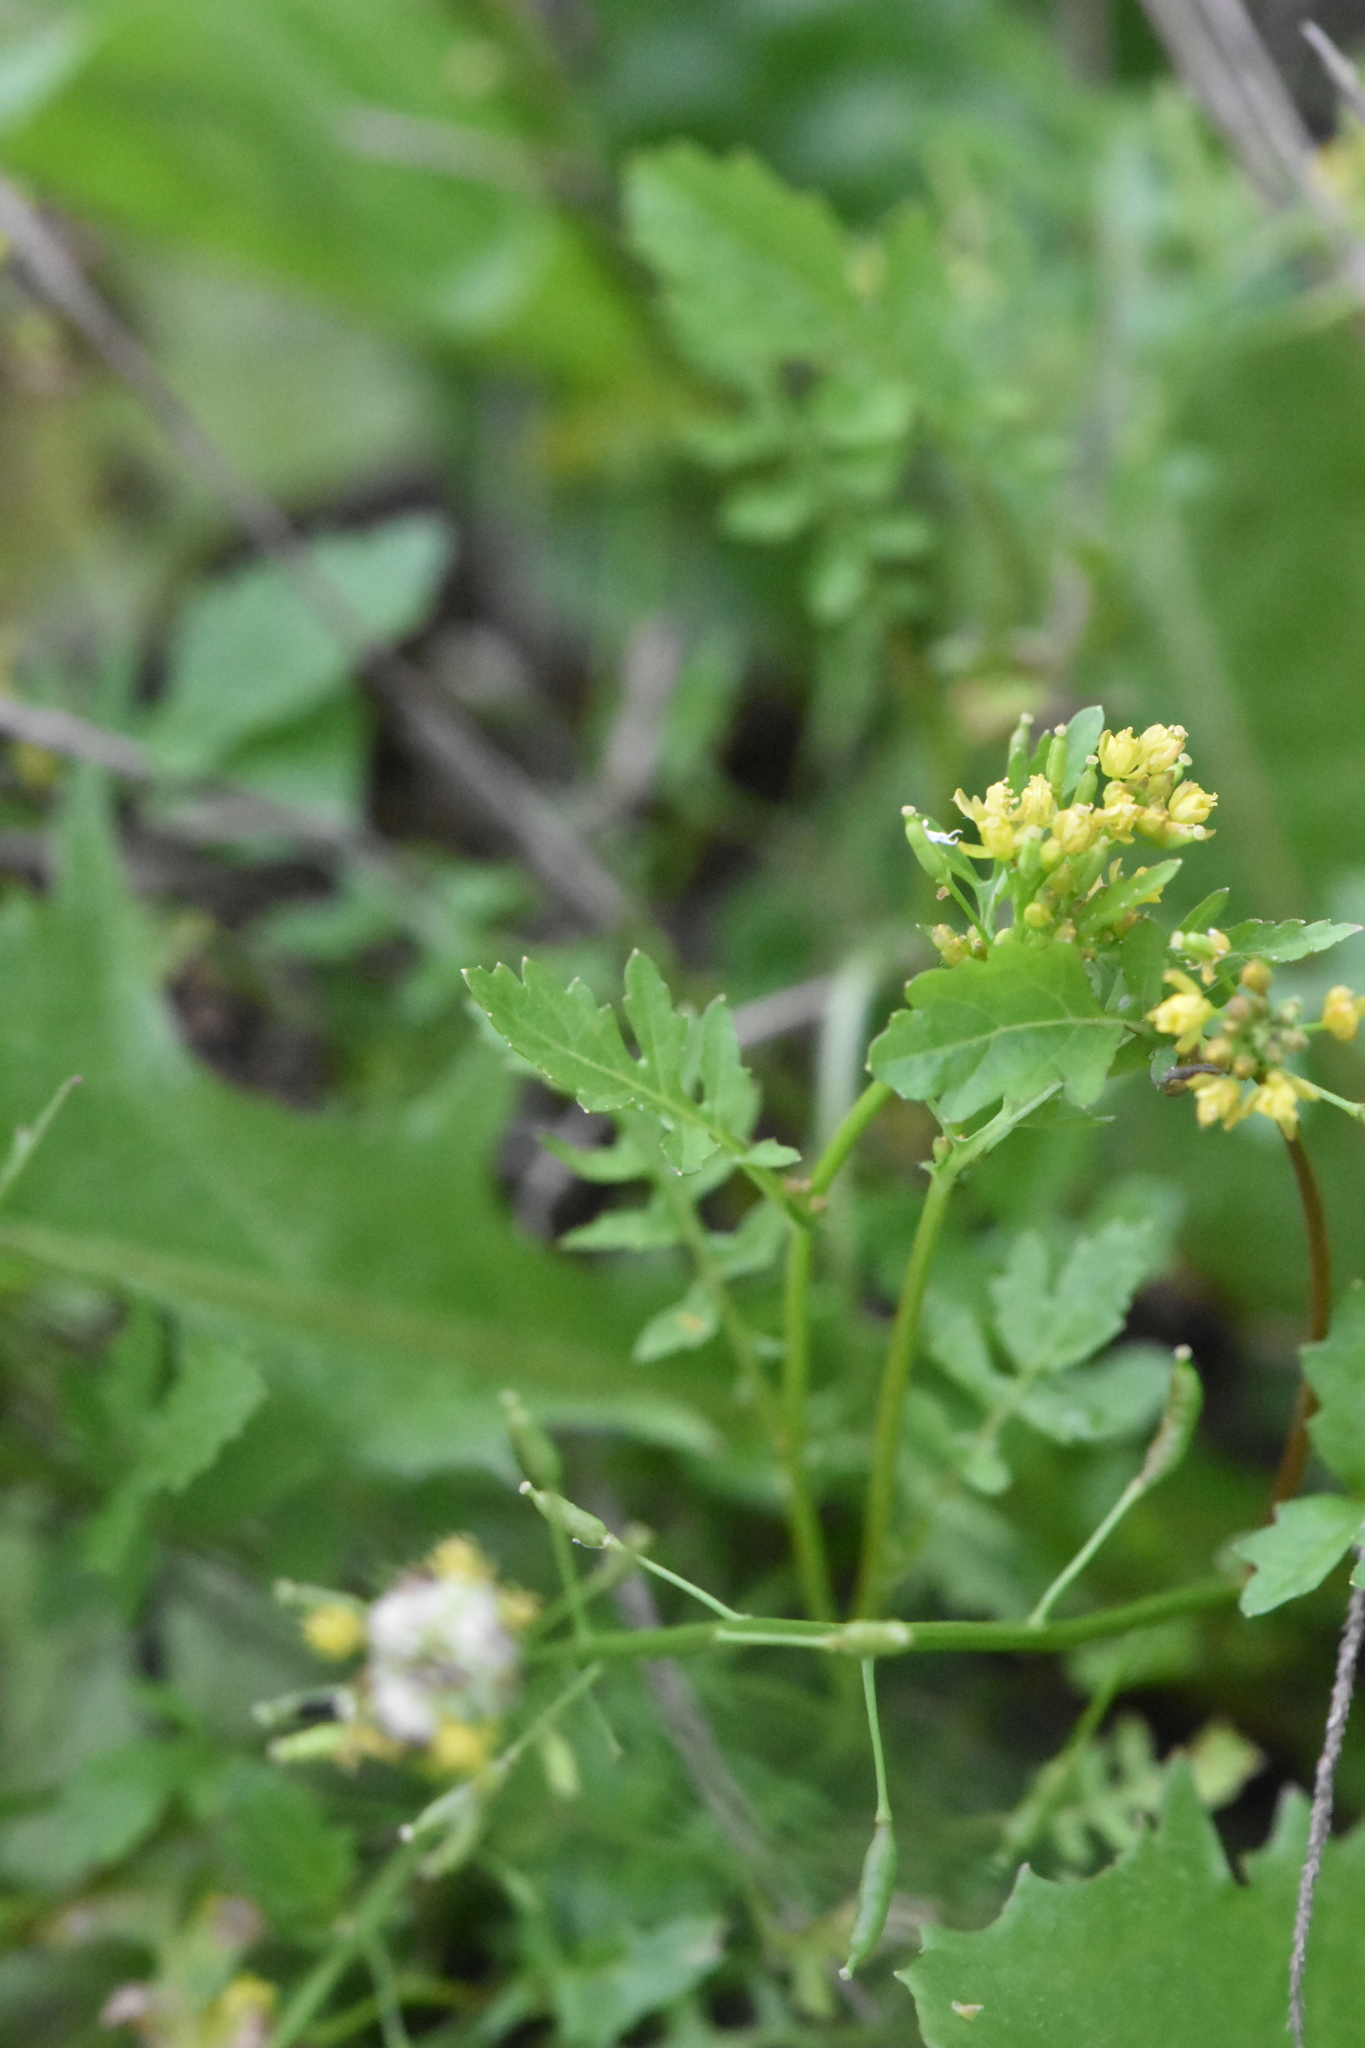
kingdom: Plantae
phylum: Tracheophyta
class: Magnoliopsida
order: Brassicales
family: Brassicaceae
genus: Rorippa
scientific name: Rorippa palustris
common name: Marsh yellow-cress
